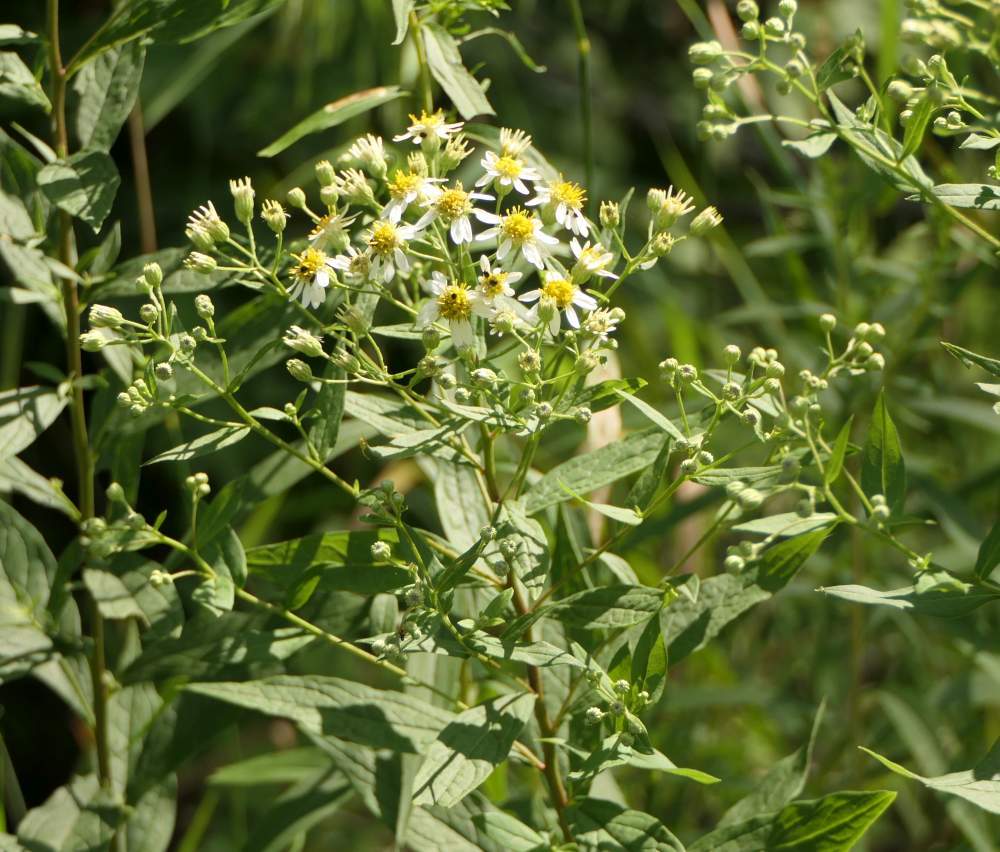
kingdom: Plantae
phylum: Tracheophyta
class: Magnoliopsida
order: Asterales
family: Asteraceae
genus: Doellingeria
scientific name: Doellingeria umbellata
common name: Flat-top white aster
